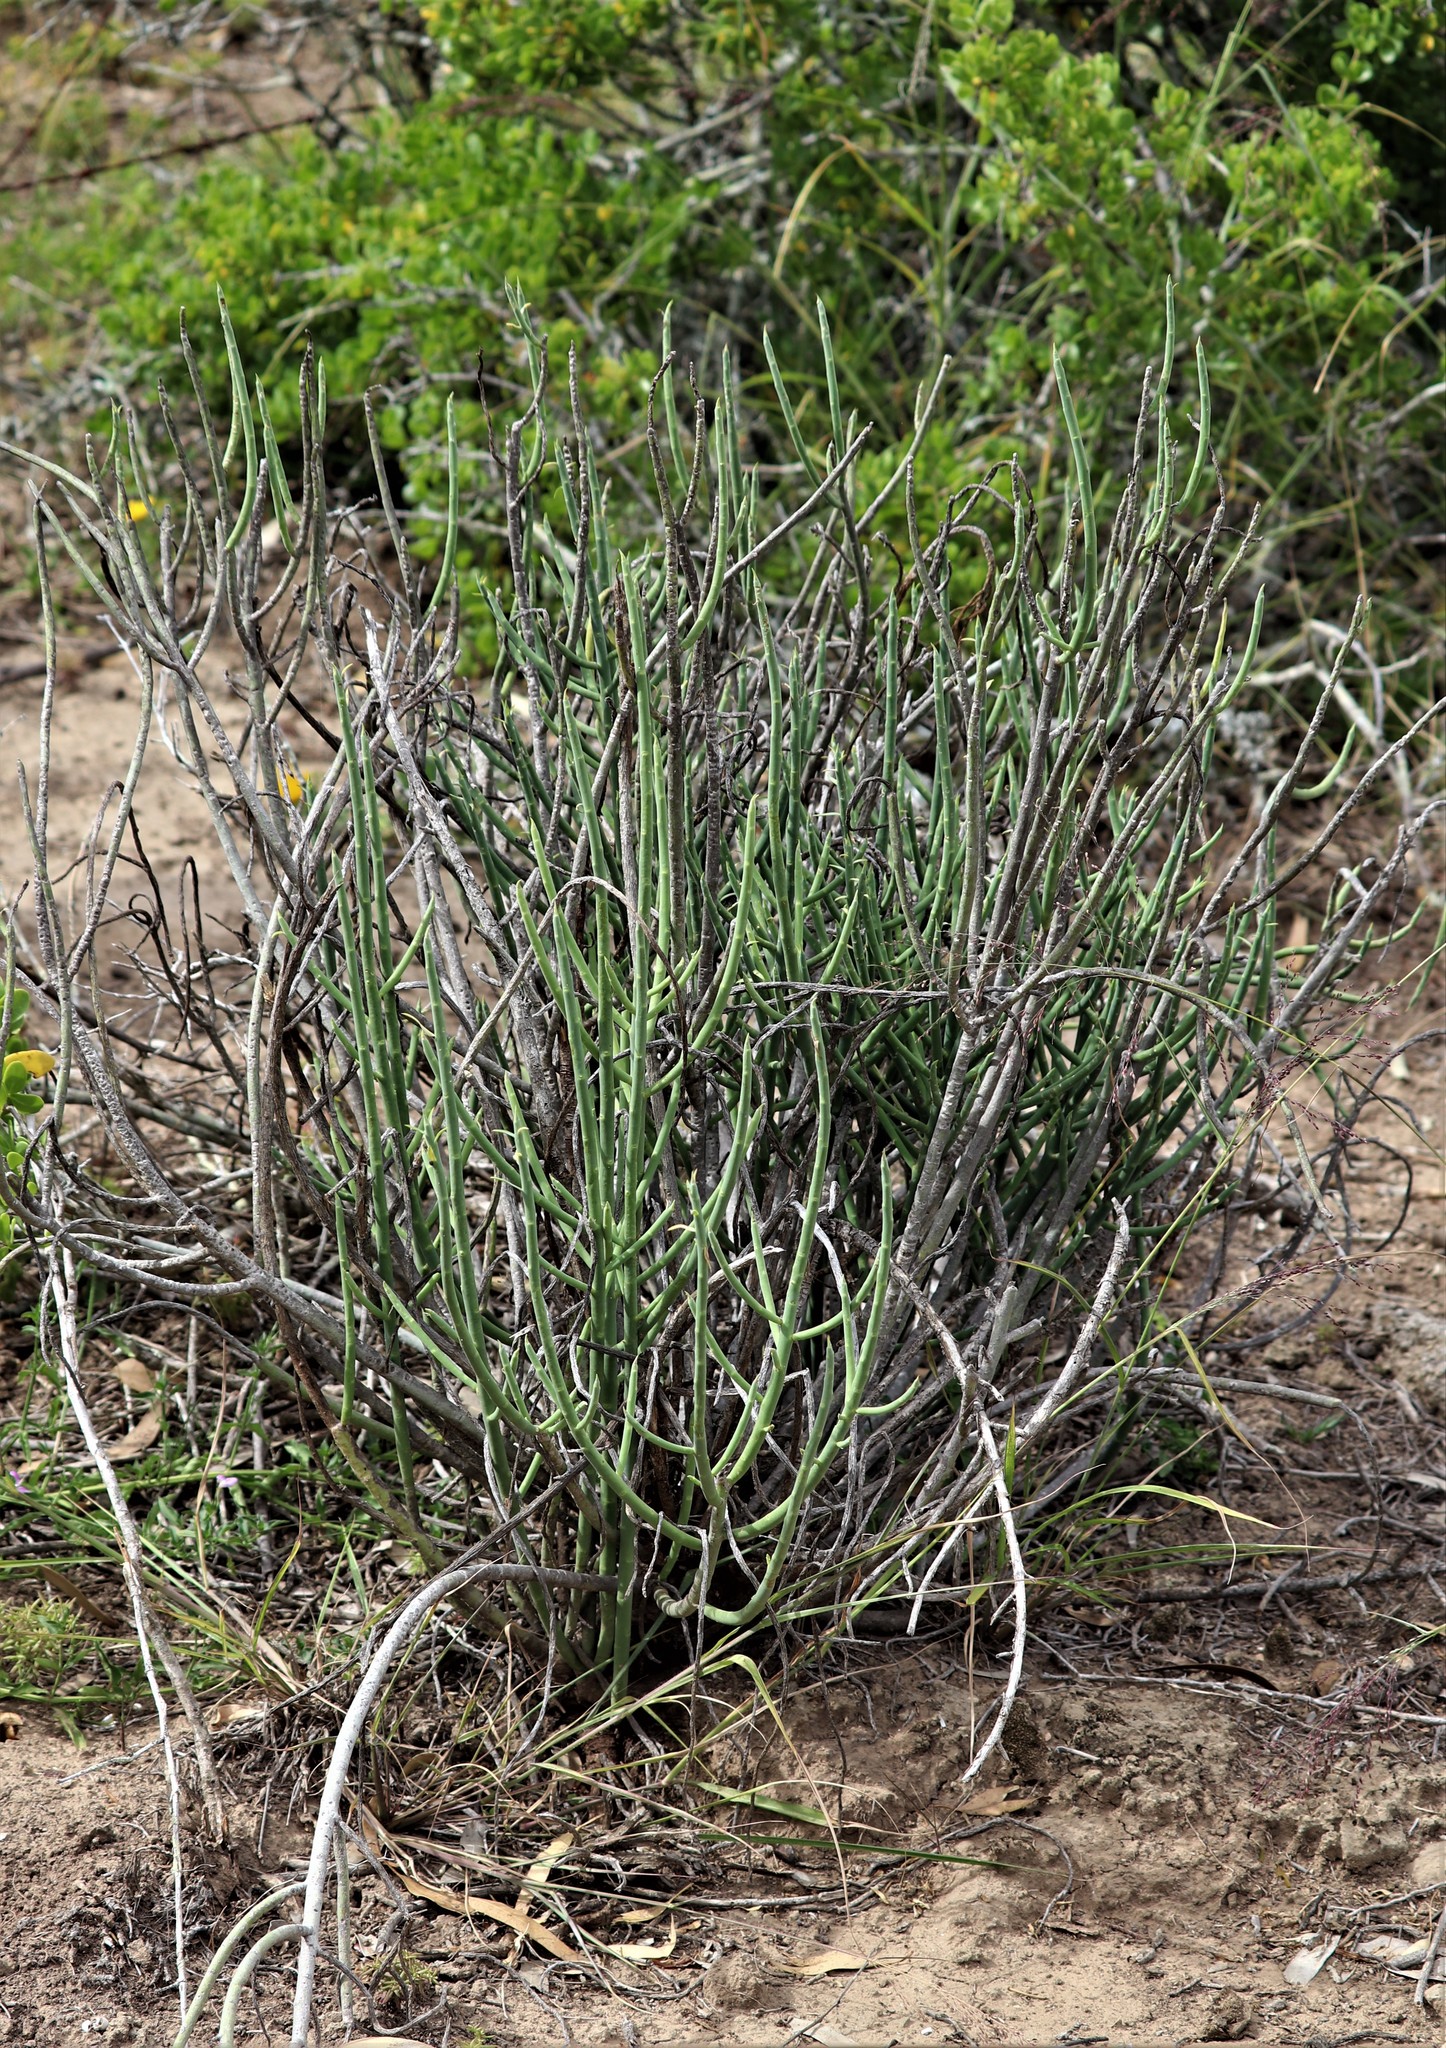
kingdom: Plantae
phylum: Tracheophyta
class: Magnoliopsida
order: Malpighiales
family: Euphorbiaceae
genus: Euphorbia
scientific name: Euphorbia mauritanica
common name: Jackal's-food
